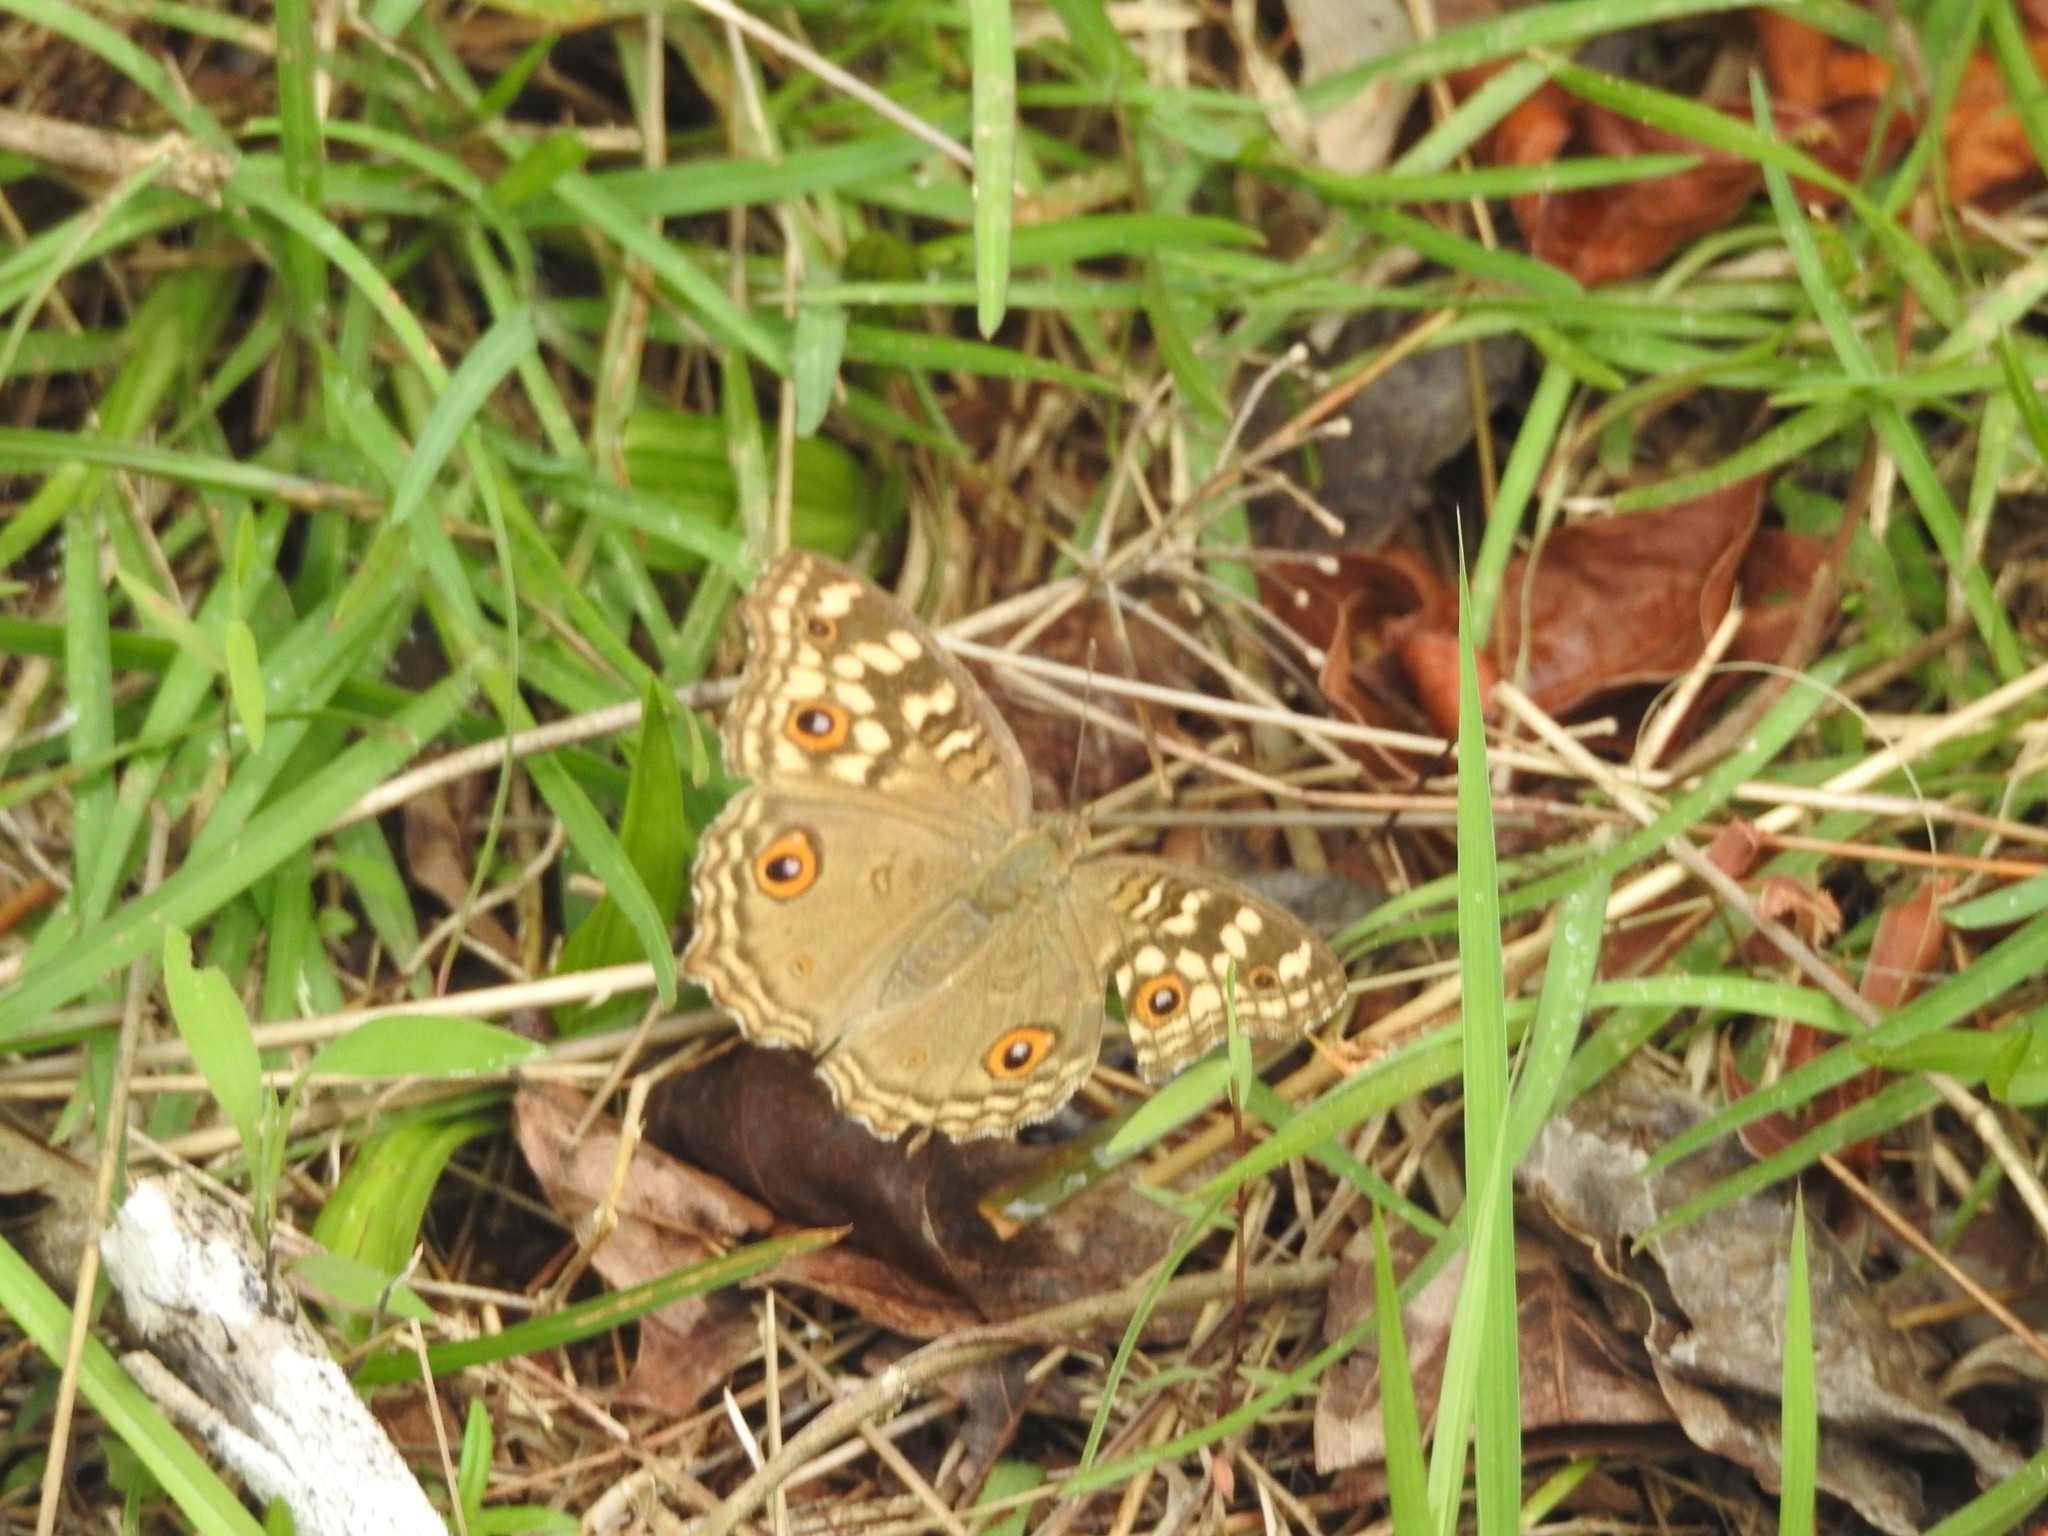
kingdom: Animalia
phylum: Arthropoda
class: Insecta
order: Lepidoptera
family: Nymphalidae
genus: Junonia
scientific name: Junonia lemonias
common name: Lemon pansy
